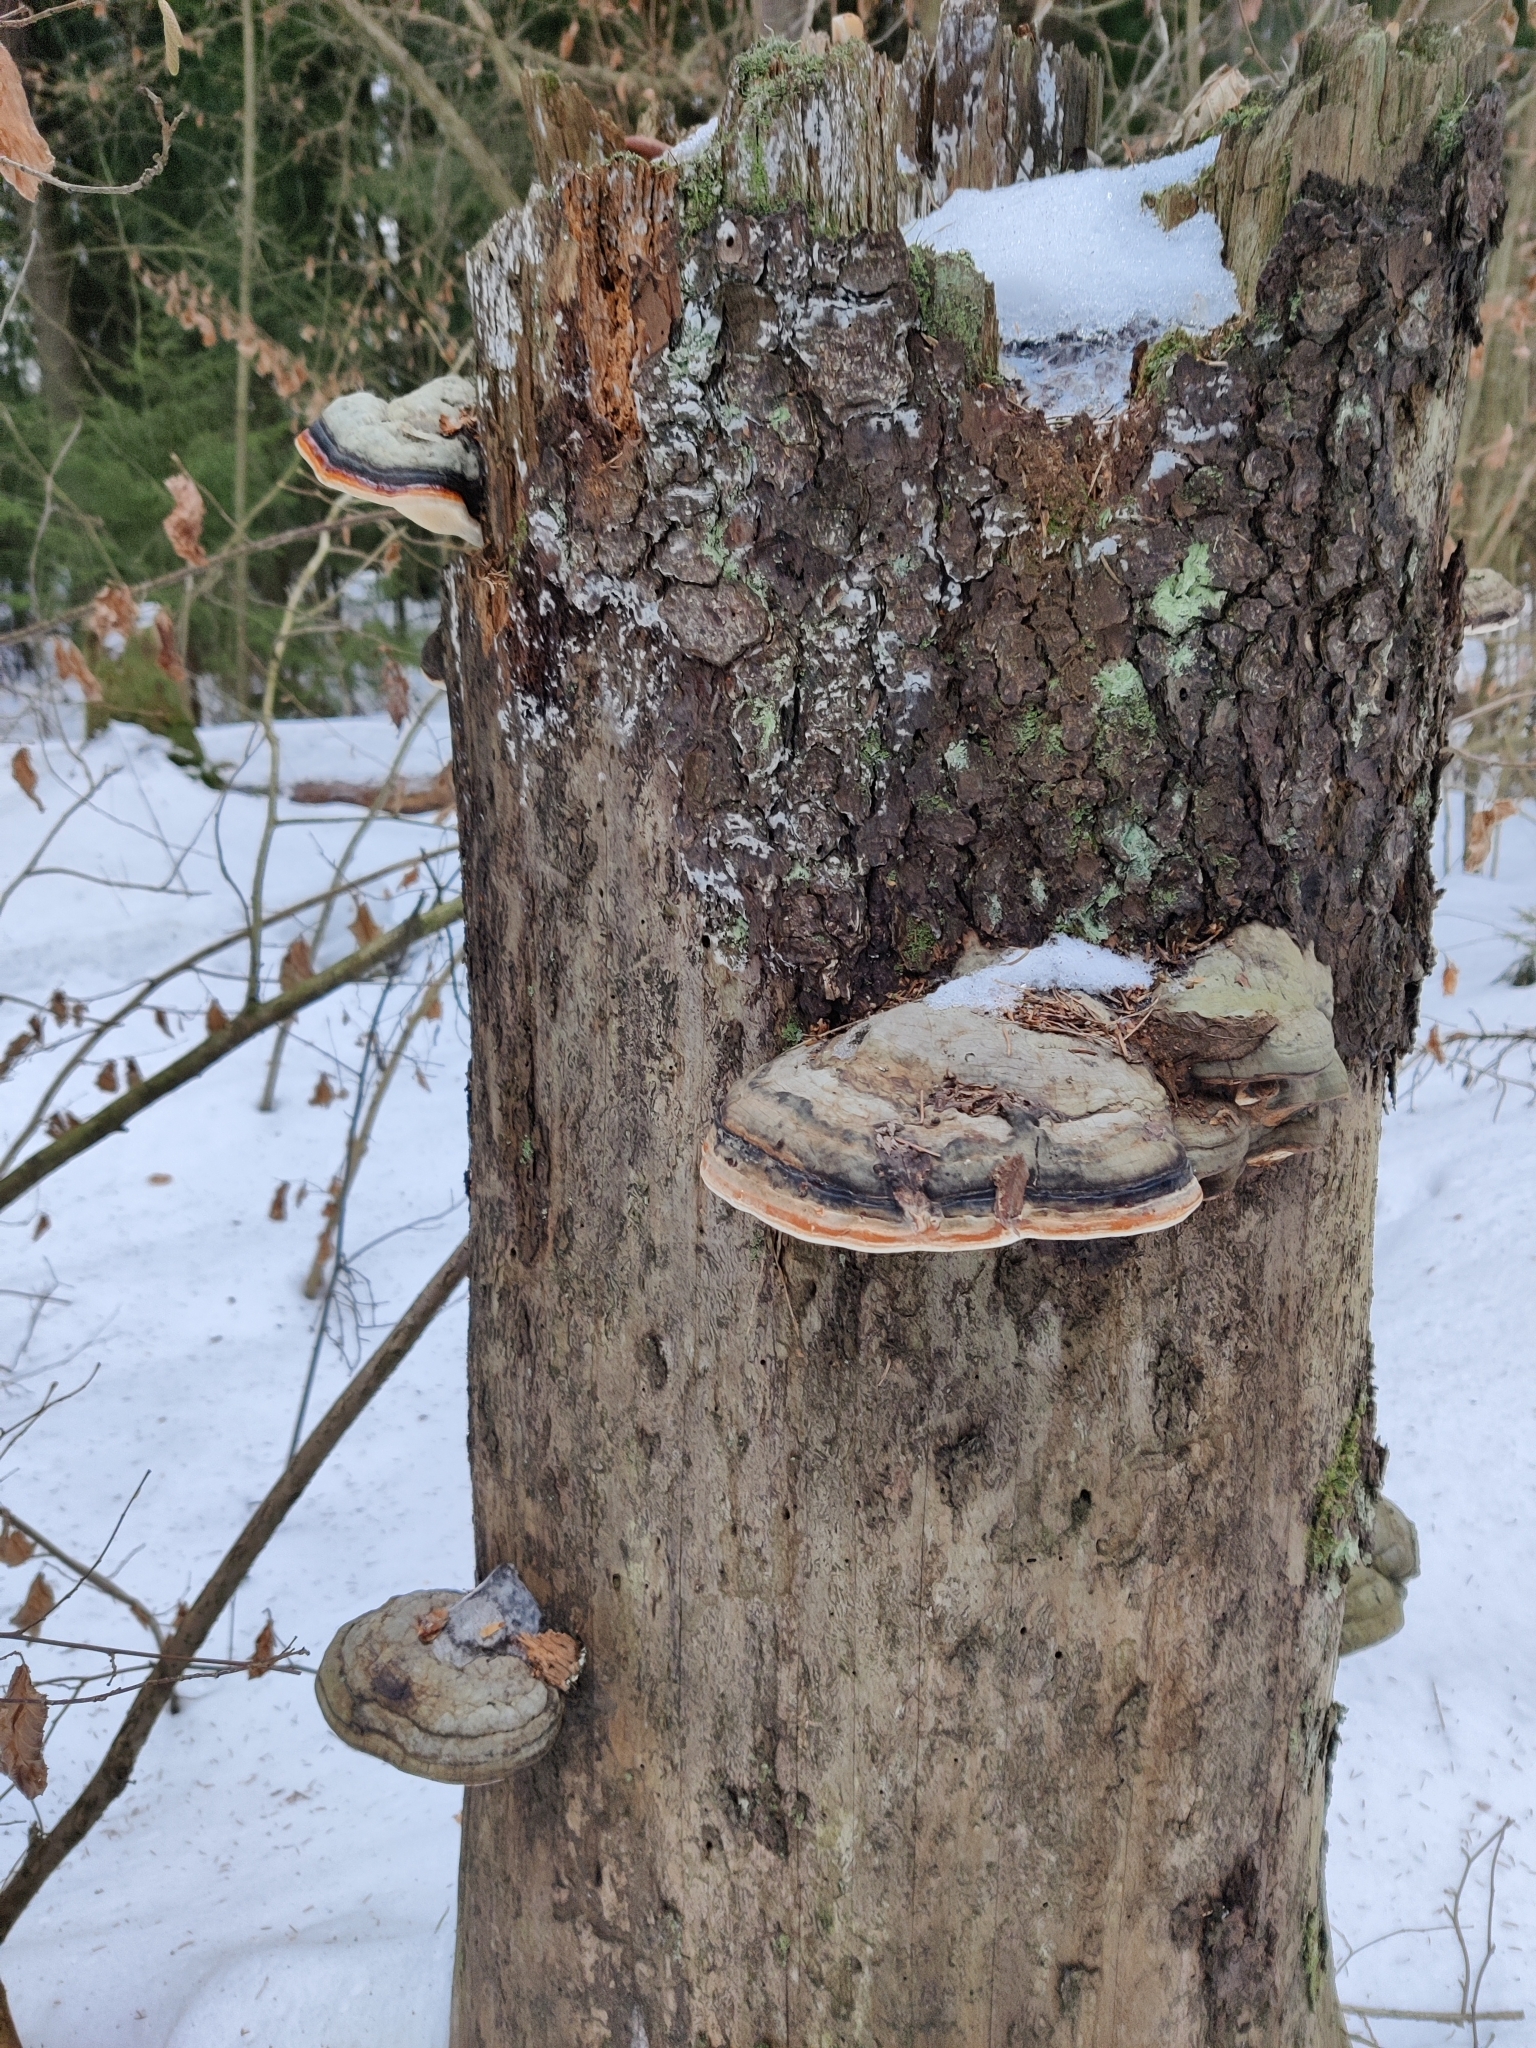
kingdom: Fungi
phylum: Basidiomycota
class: Agaricomycetes
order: Polyporales
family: Fomitopsidaceae
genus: Fomitopsis
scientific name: Fomitopsis pinicola
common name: Red-belted bracket
